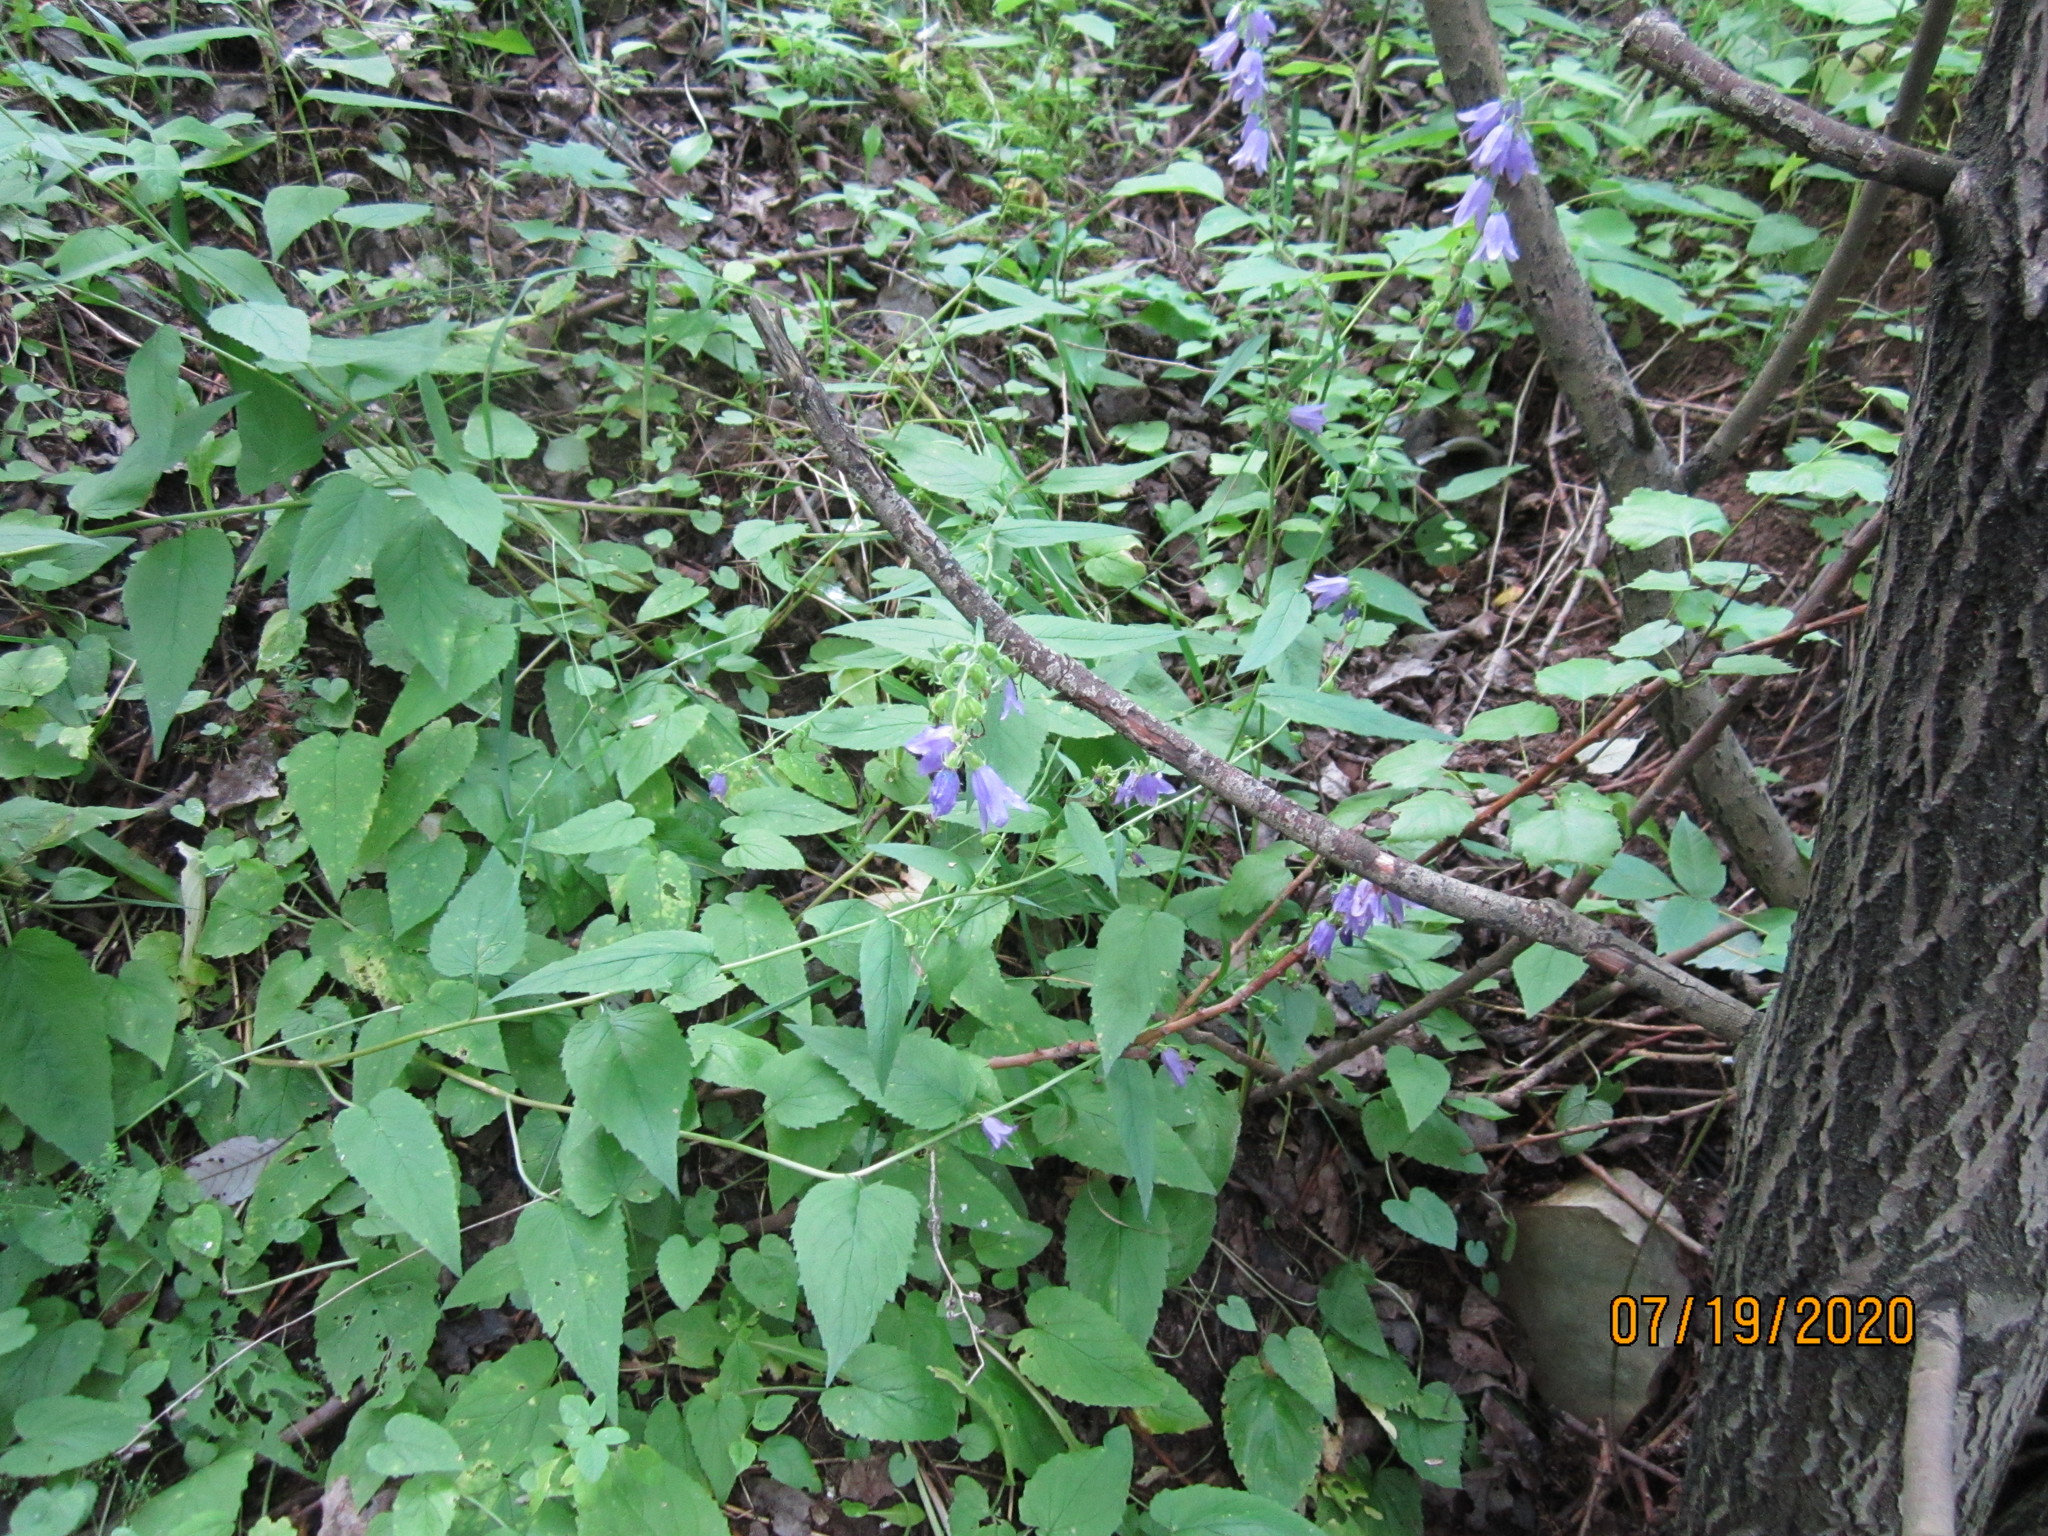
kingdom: Plantae
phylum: Tracheophyta
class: Magnoliopsida
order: Asterales
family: Campanulaceae
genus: Campanula
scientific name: Campanula rapunculoides
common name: Creeping bellflower
